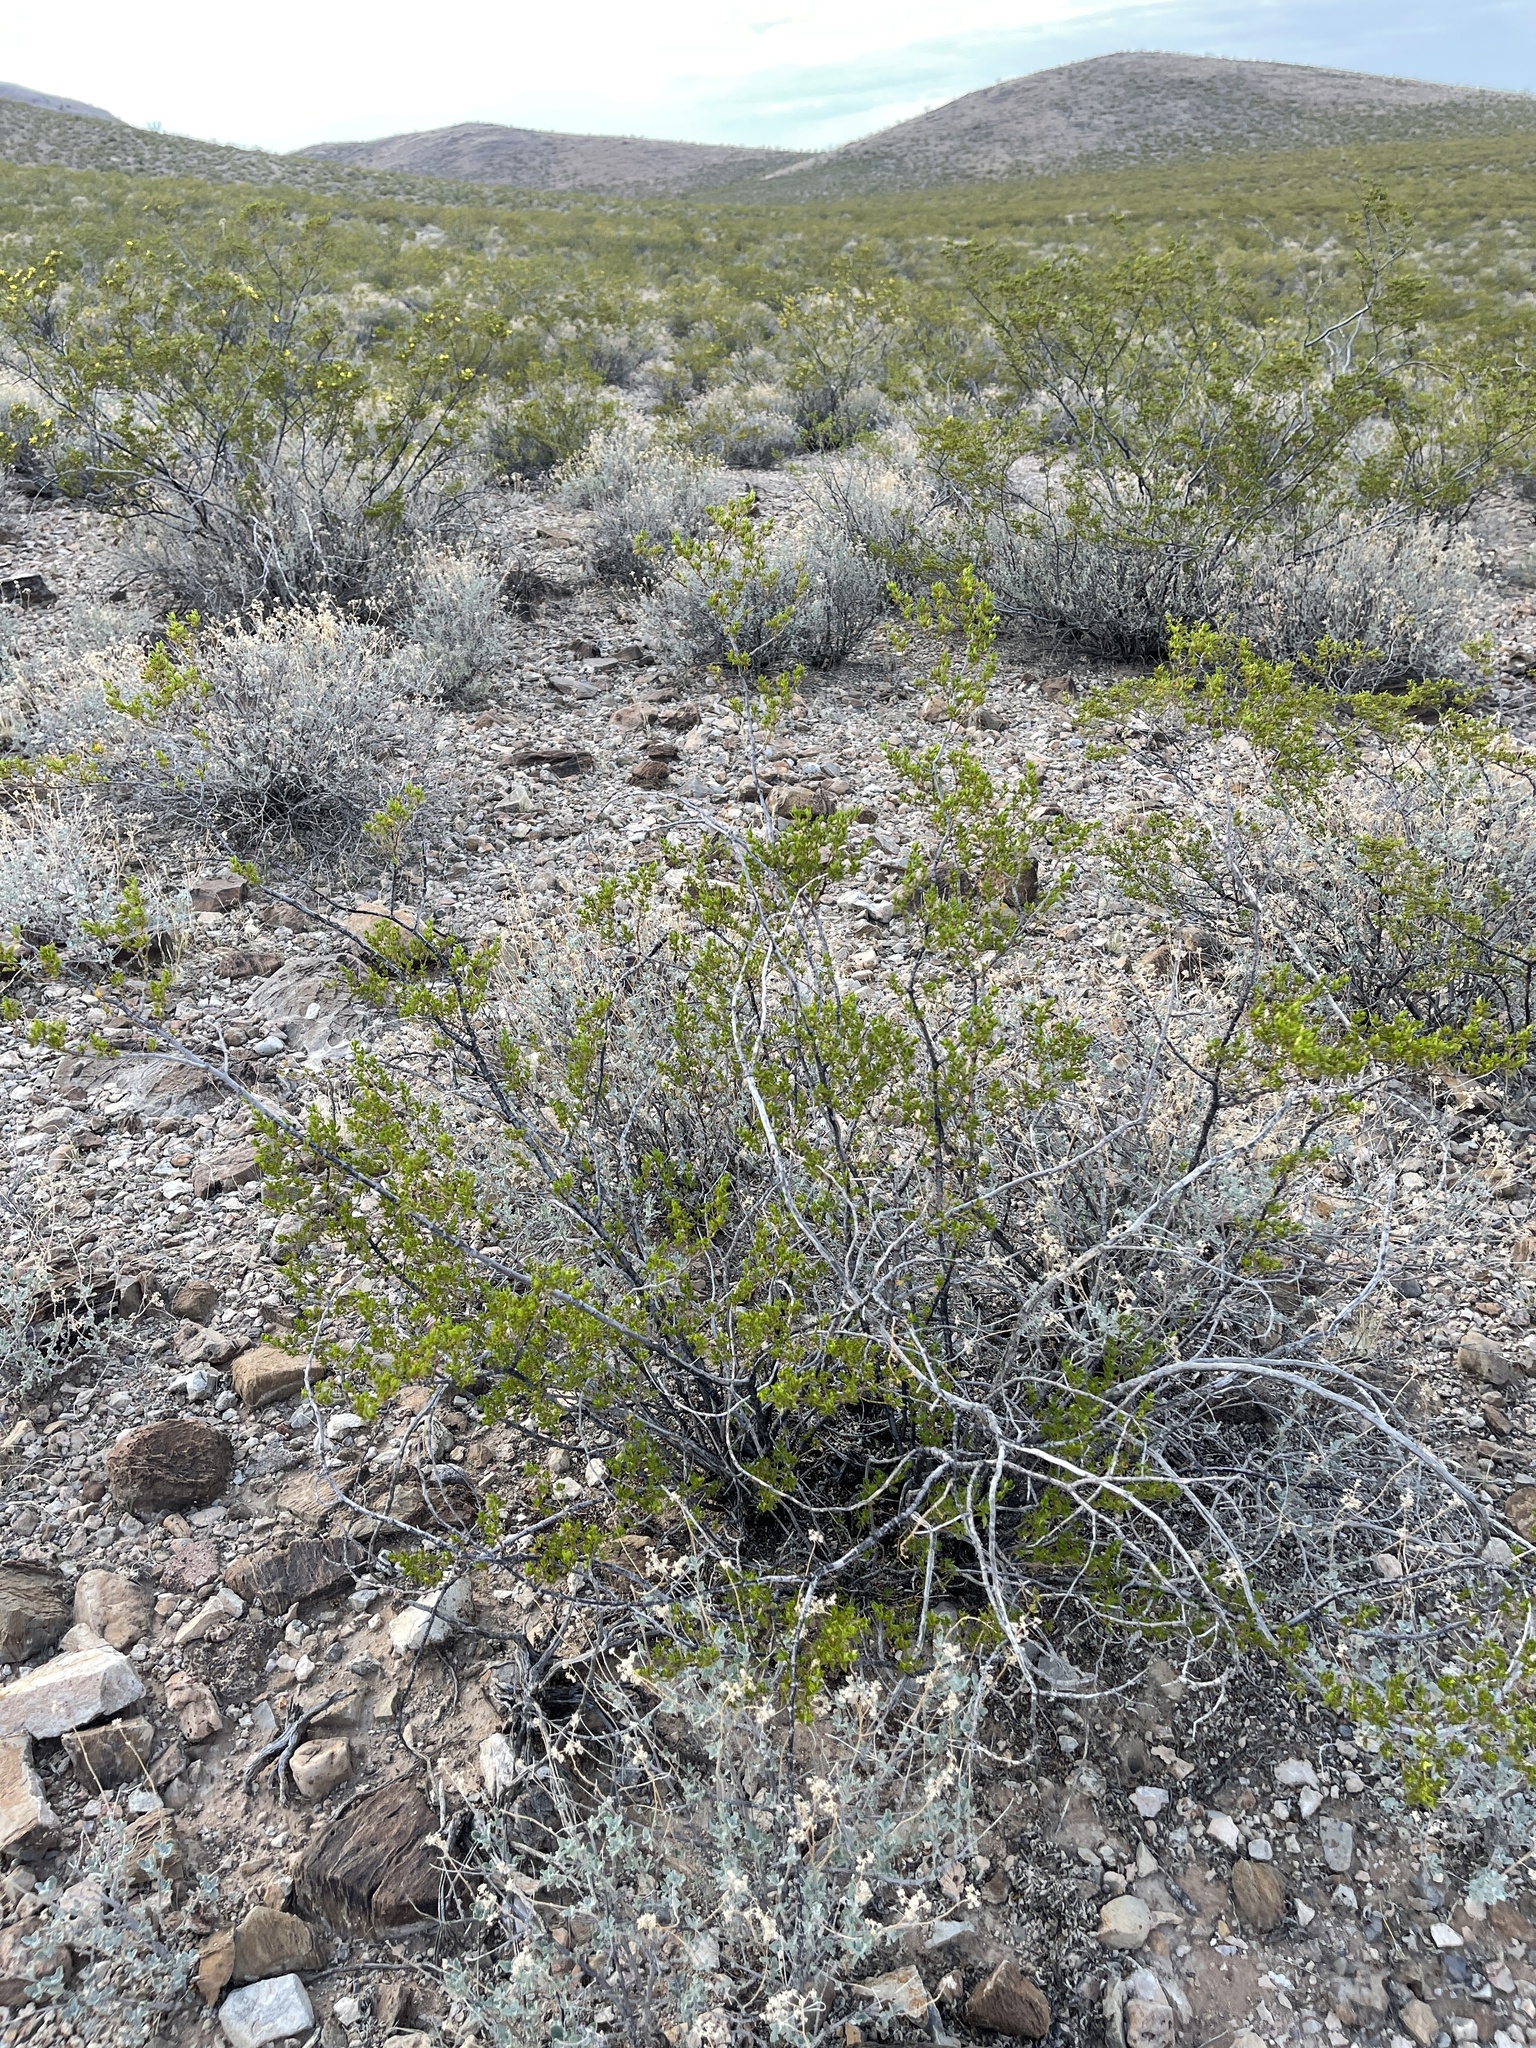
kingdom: Plantae
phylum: Tracheophyta
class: Magnoliopsida
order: Zygophyllales
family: Zygophyllaceae
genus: Larrea
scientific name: Larrea tridentata
